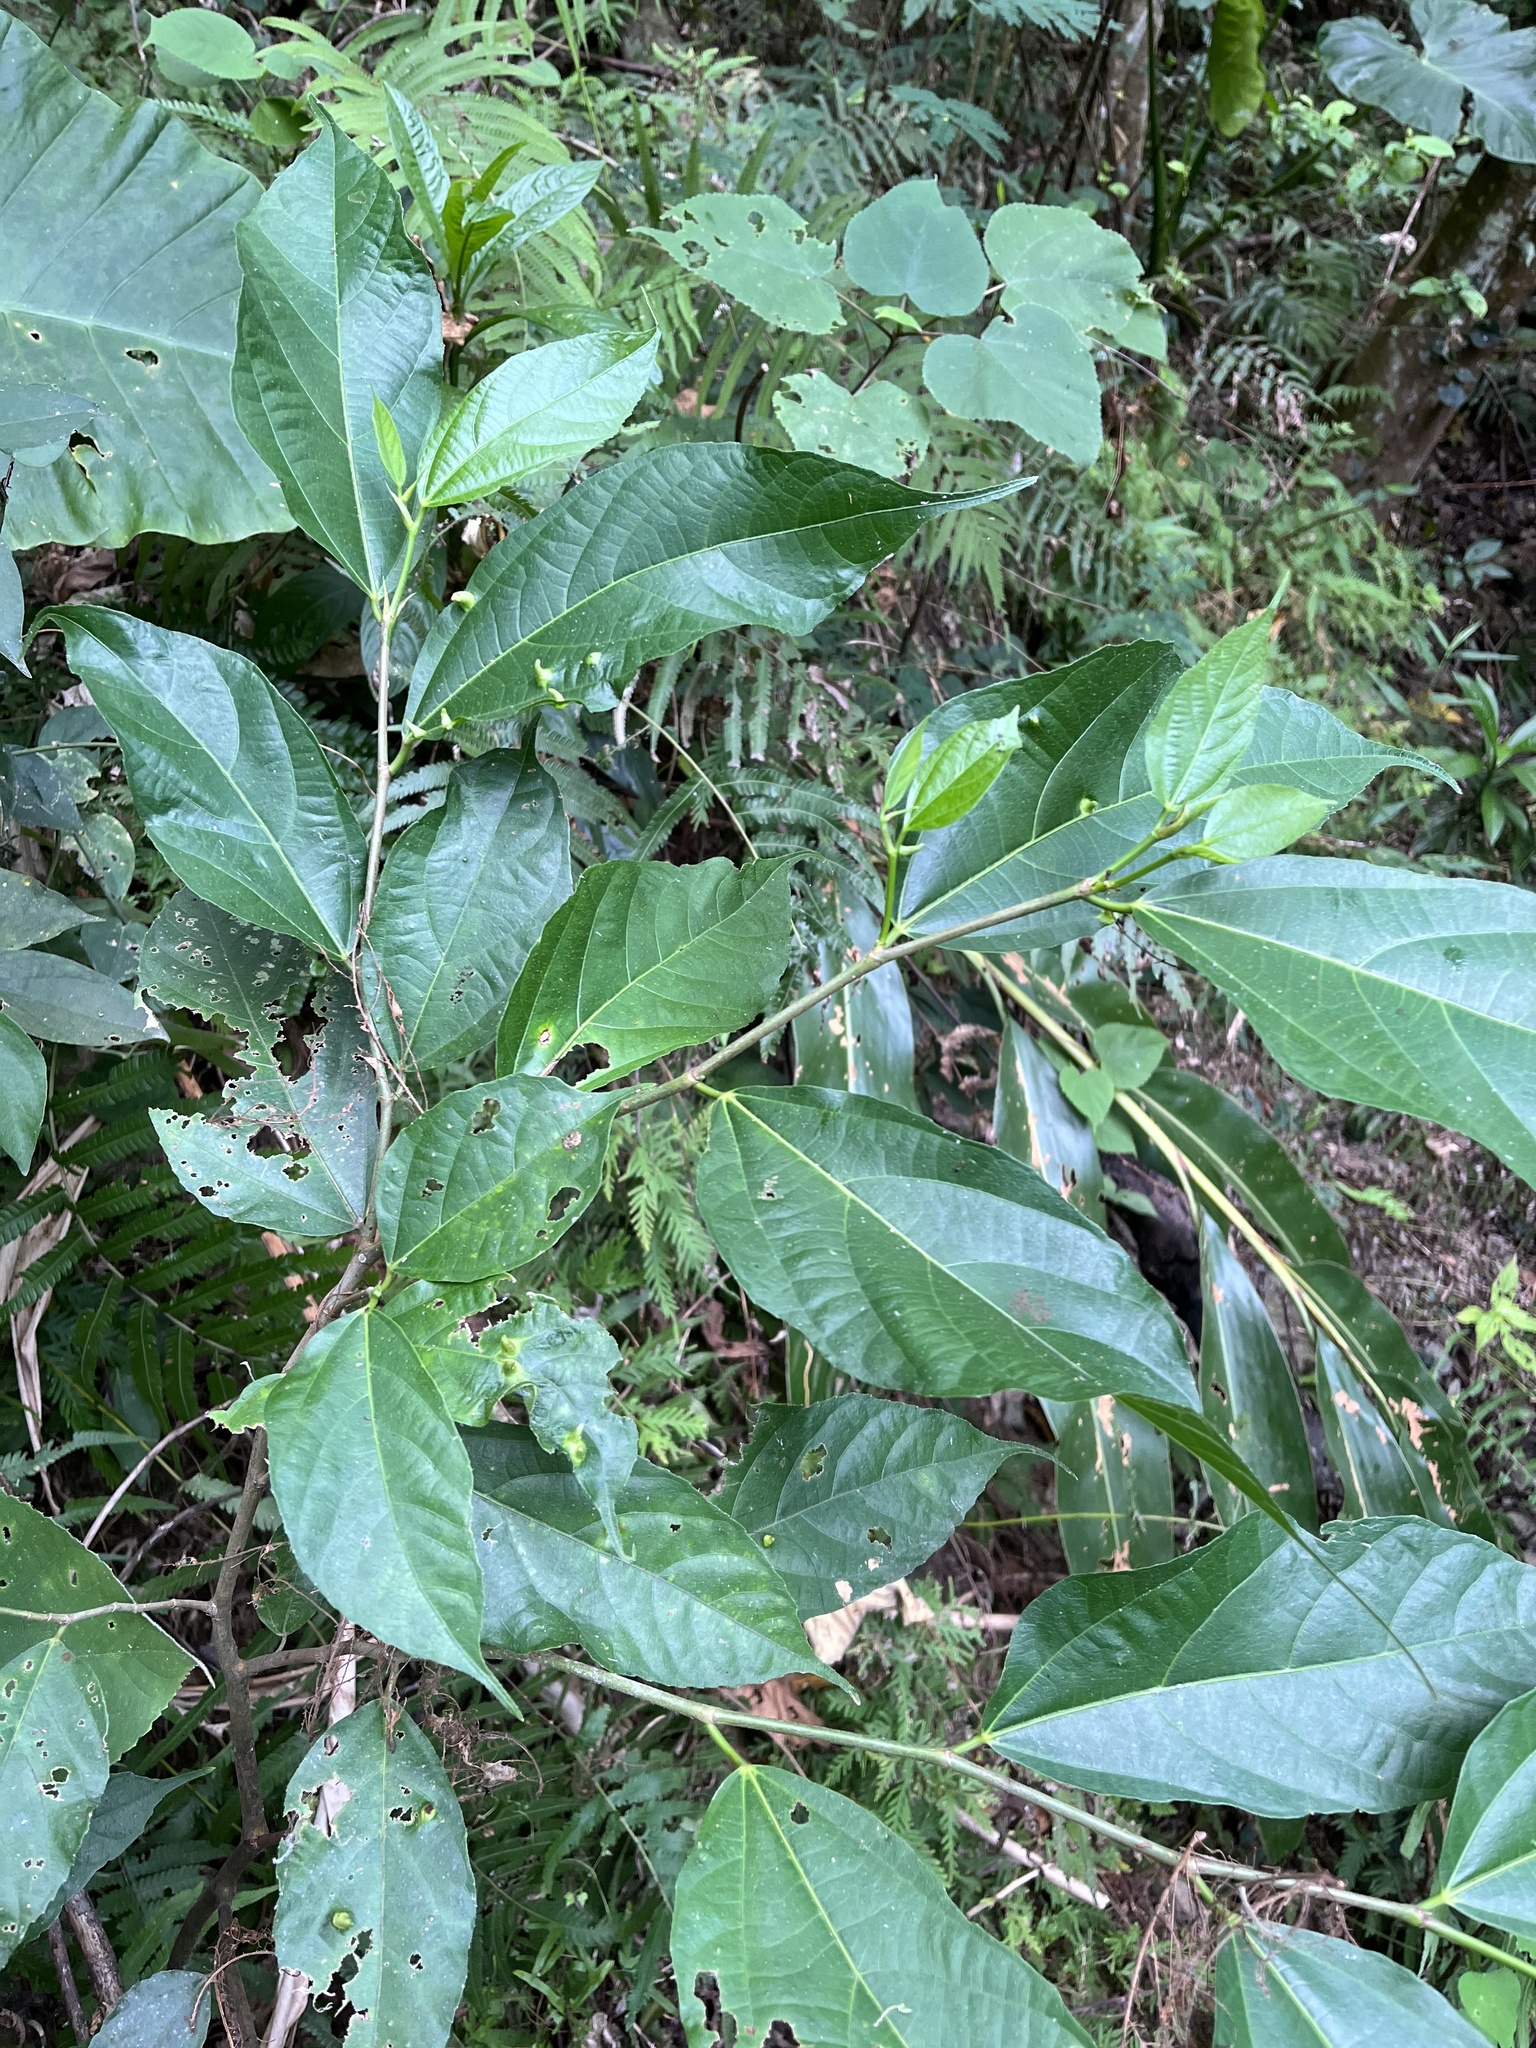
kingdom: Plantae
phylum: Tracheophyta
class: Magnoliopsida
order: Rosales
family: Moraceae
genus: Ficus
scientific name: Ficus ampelos
